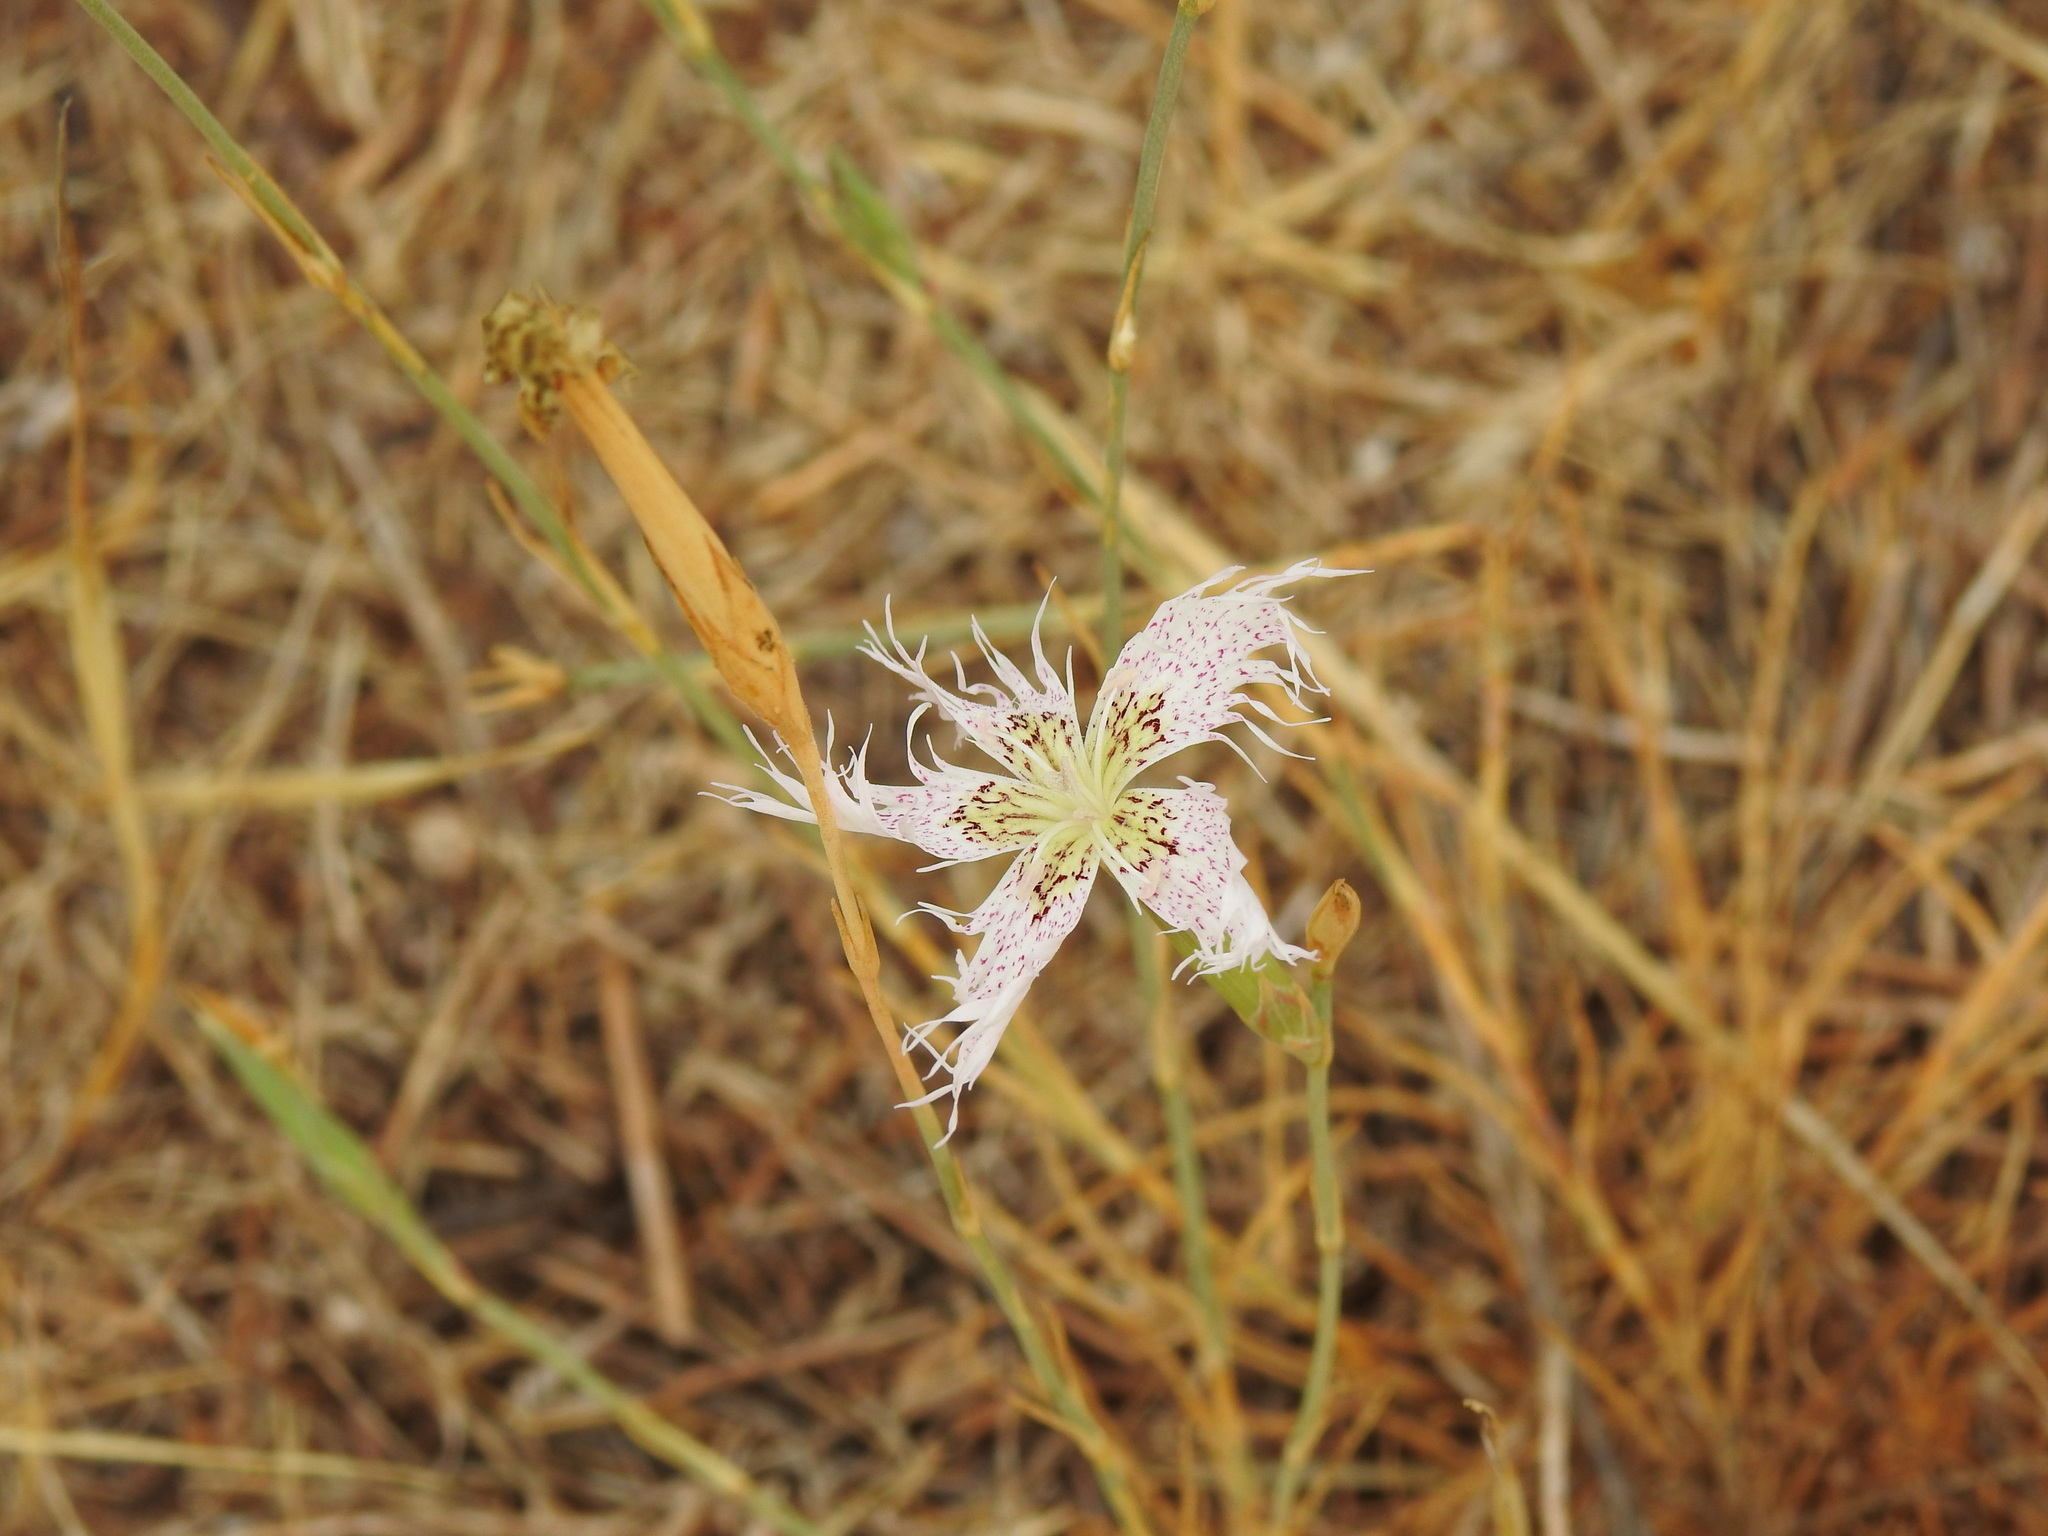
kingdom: Plantae
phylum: Tracheophyta
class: Magnoliopsida
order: Caryophyllales
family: Caryophyllaceae
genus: Dianthus
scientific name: Dianthus broteri
